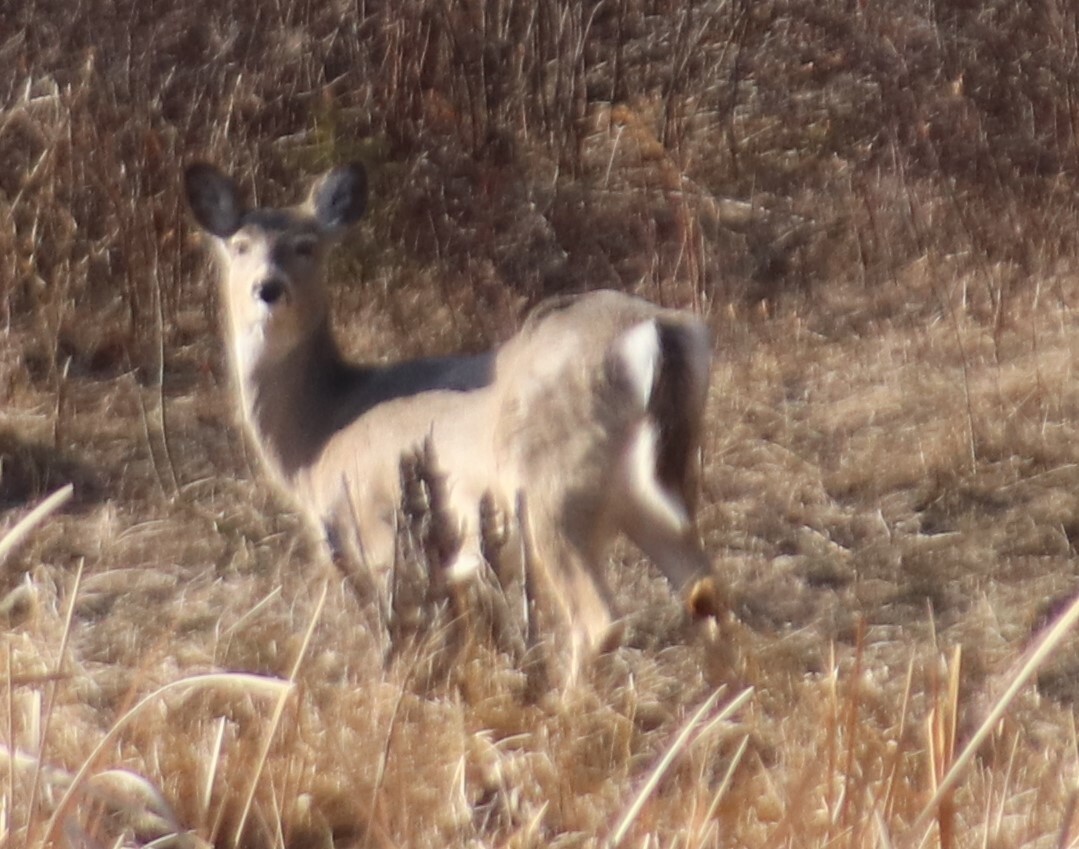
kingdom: Animalia
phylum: Chordata
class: Mammalia
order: Artiodactyla
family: Cervidae
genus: Odocoileus
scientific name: Odocoileus virginianus
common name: White-tailed deer
